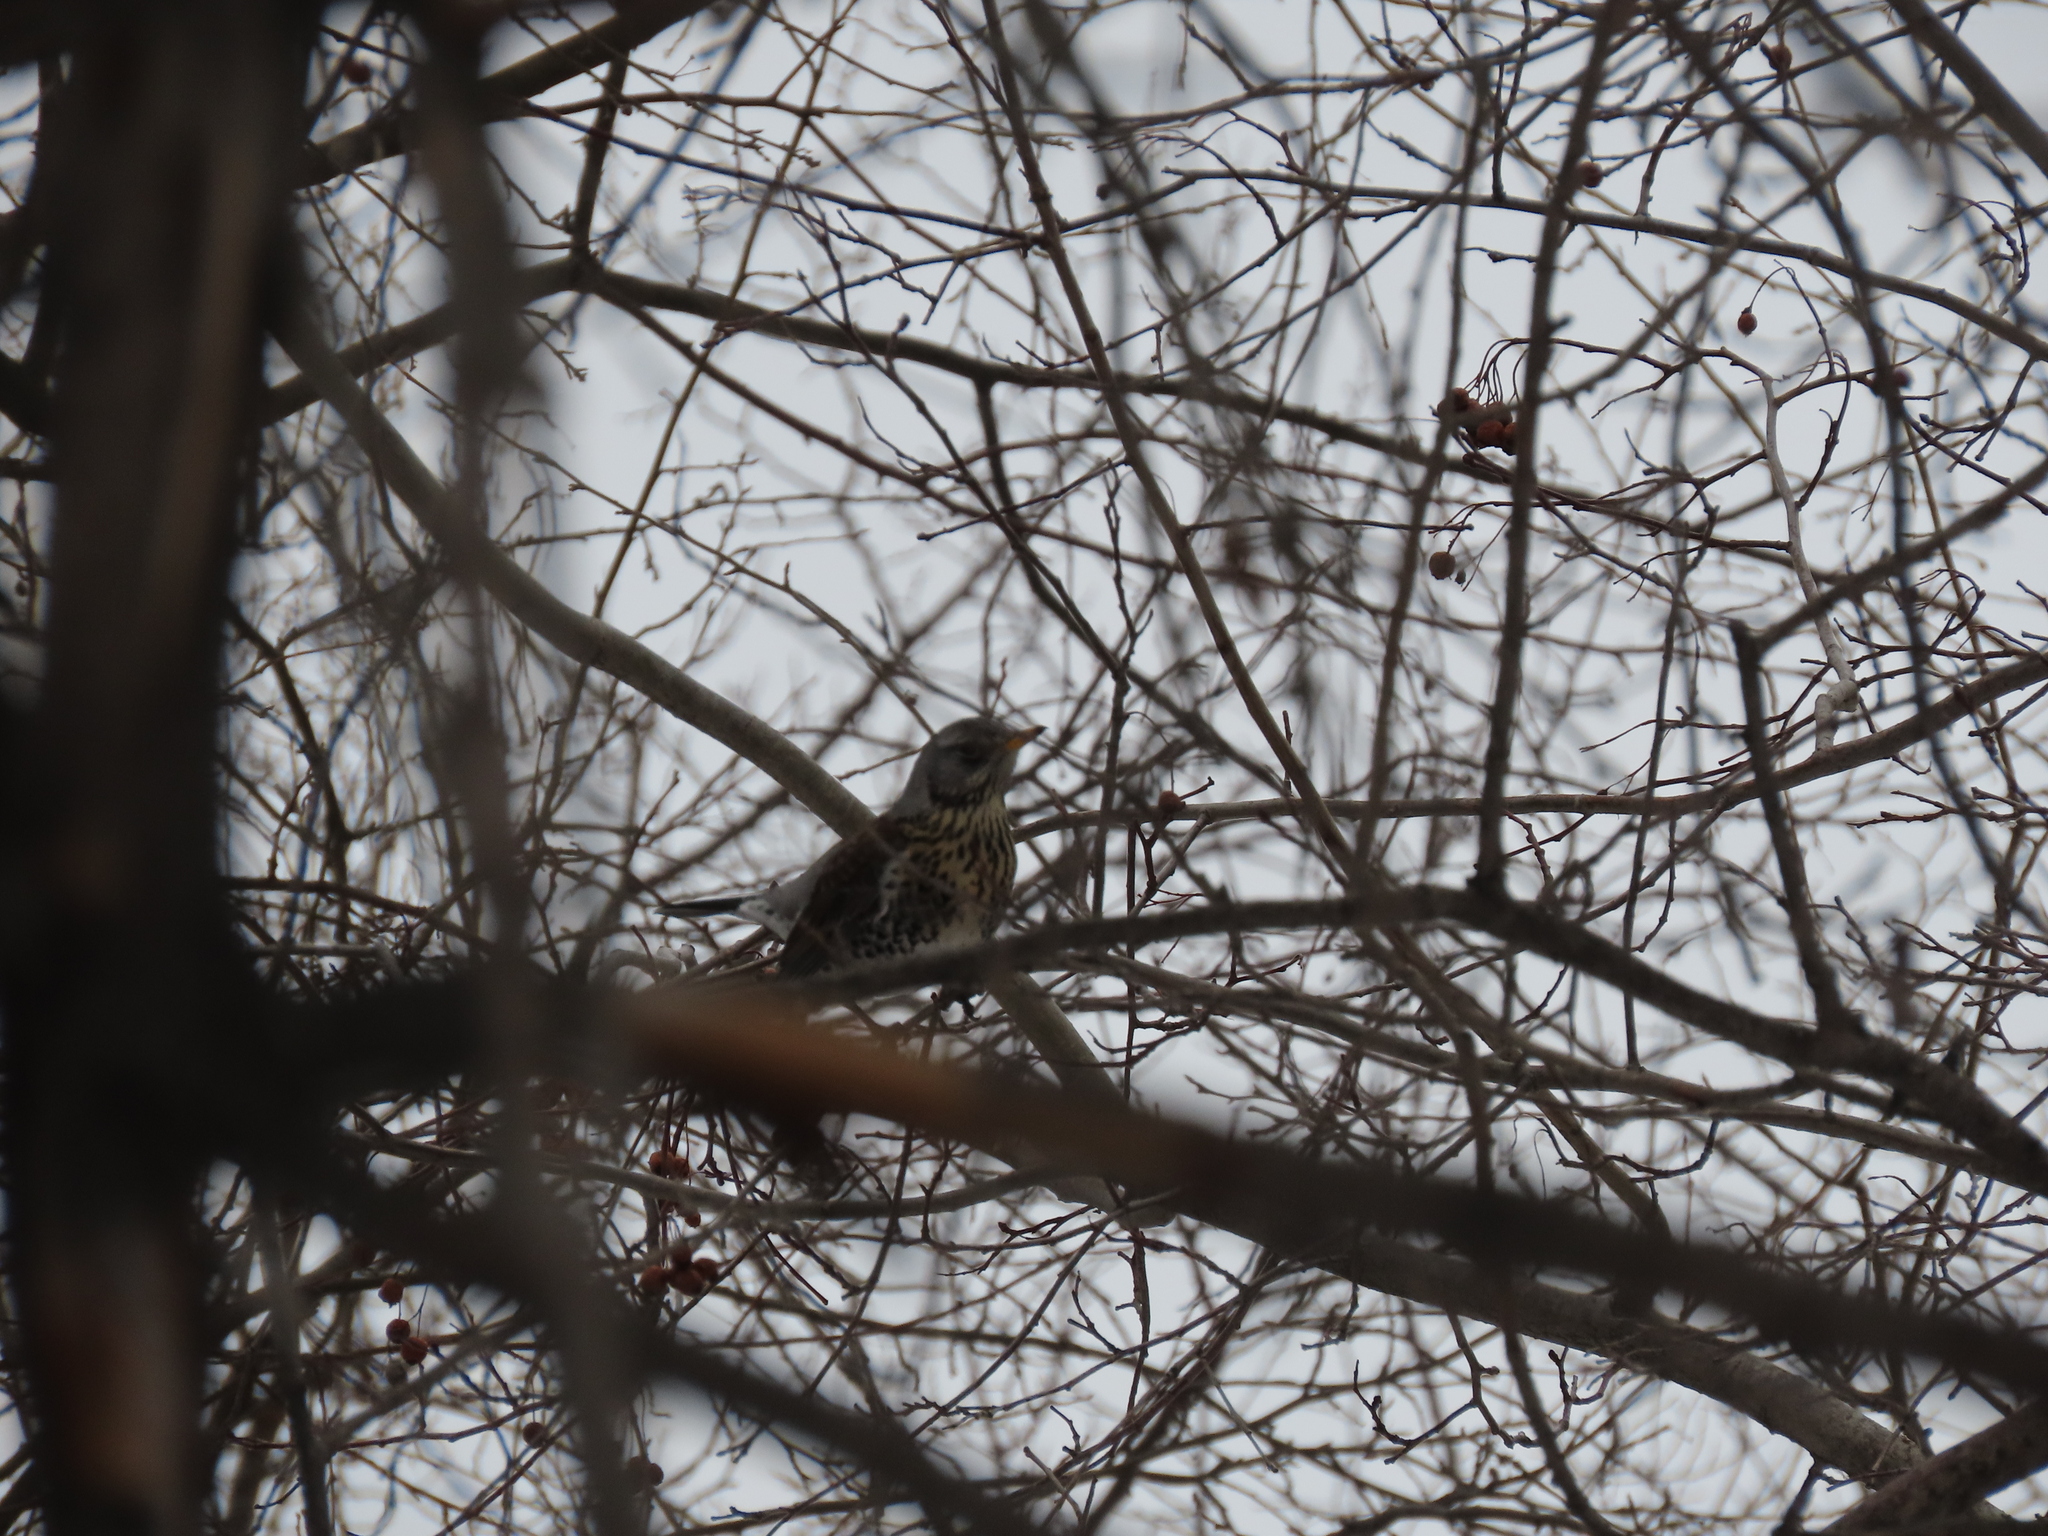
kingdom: Animalia
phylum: Chordata
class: Aves
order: Passeriformes
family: Turdidae
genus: Turdus
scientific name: Turdus pilaris
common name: Fieldfare
